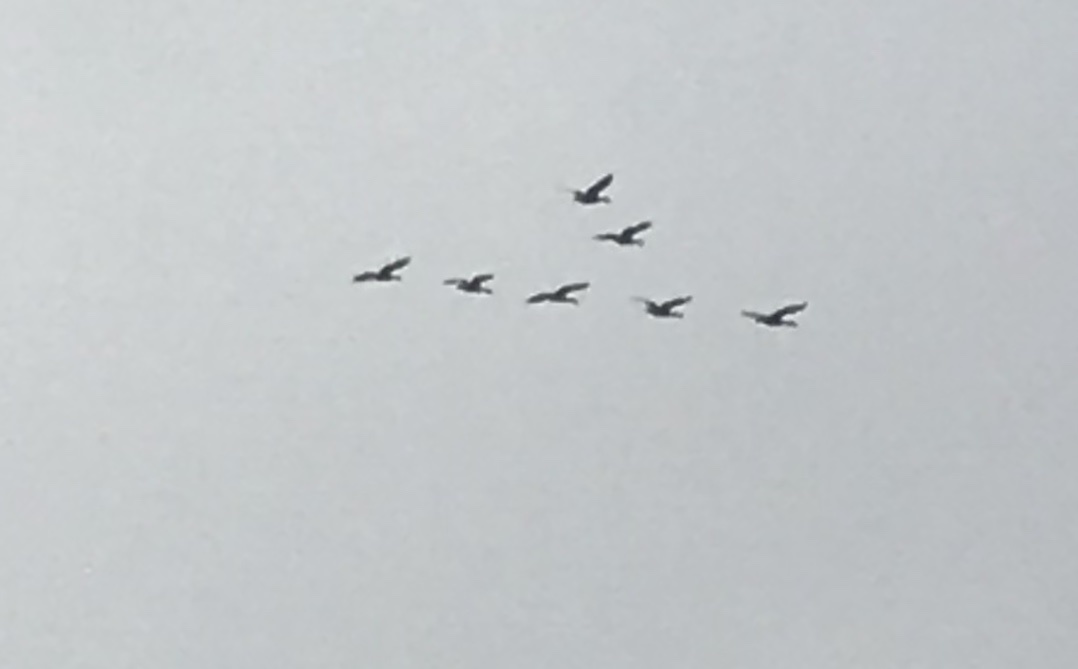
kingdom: Animalia
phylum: Chordata
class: Aves
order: Anseriformes
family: Anatidae
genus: Branta
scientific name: Branta canadensis
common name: Canada goose
